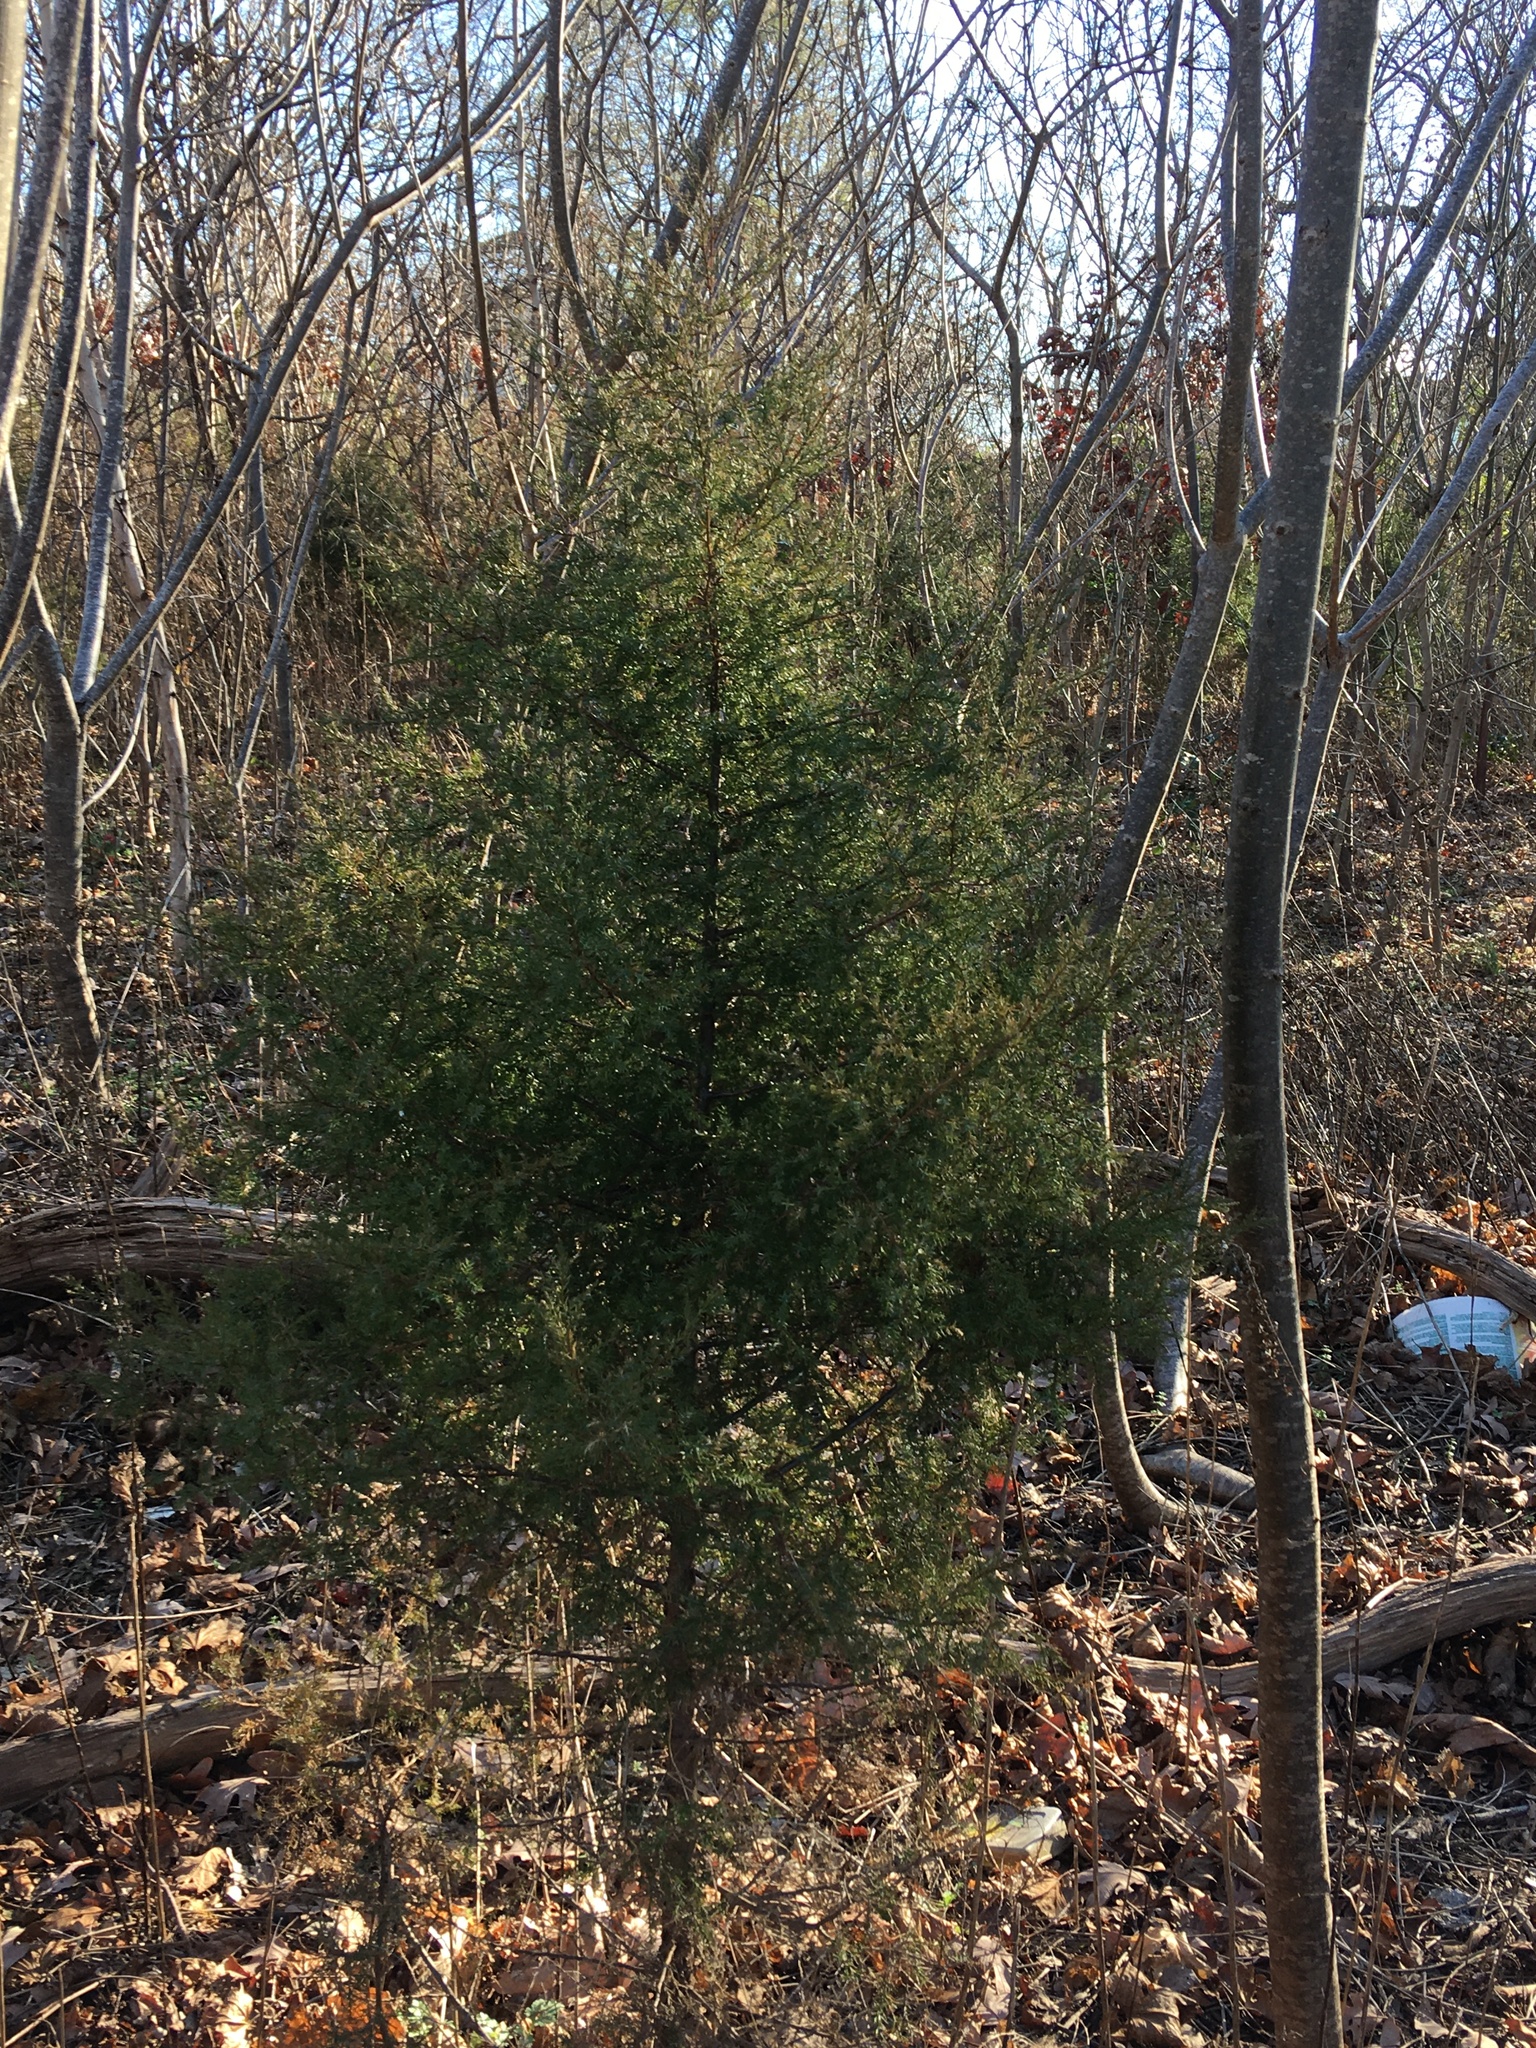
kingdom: Plantae
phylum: Tracheophyta
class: Pinopsida
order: Pinales
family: Cupressaceae
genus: Juniperus
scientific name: Juniperus virginiana
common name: Red juniper
